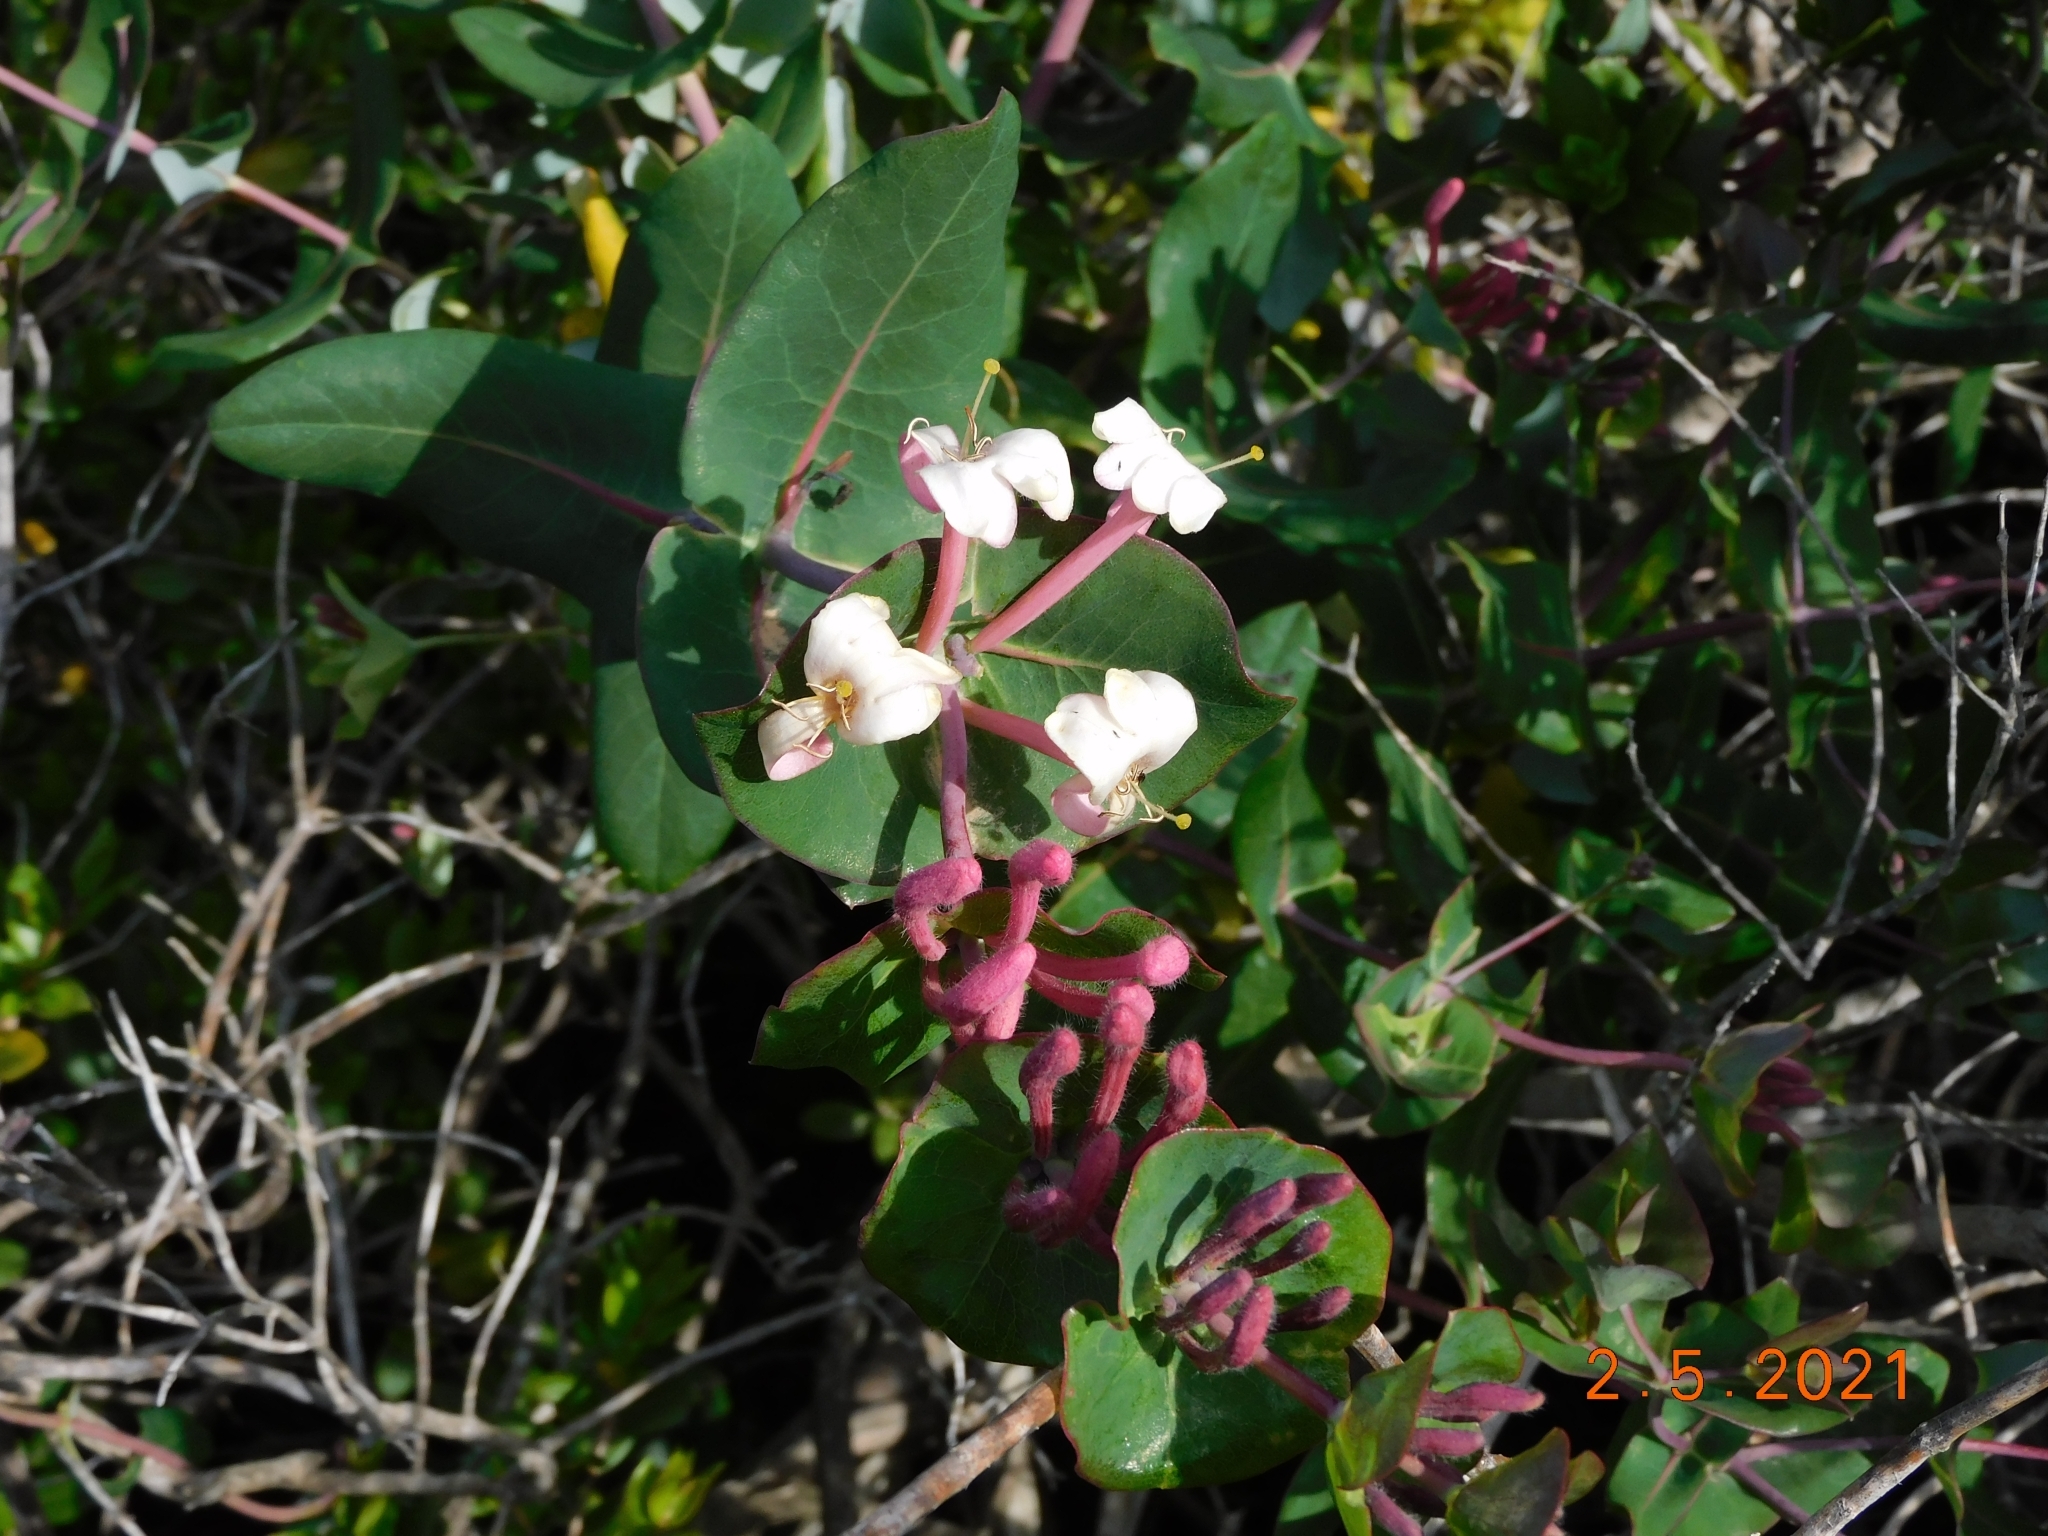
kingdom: Plantae
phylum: Tracheophyta
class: Magnoliopsida
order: Dipsacales
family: Caprifoliaceae
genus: Lonicera
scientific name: Lonicera implexa
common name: Minorca honeysuckle
